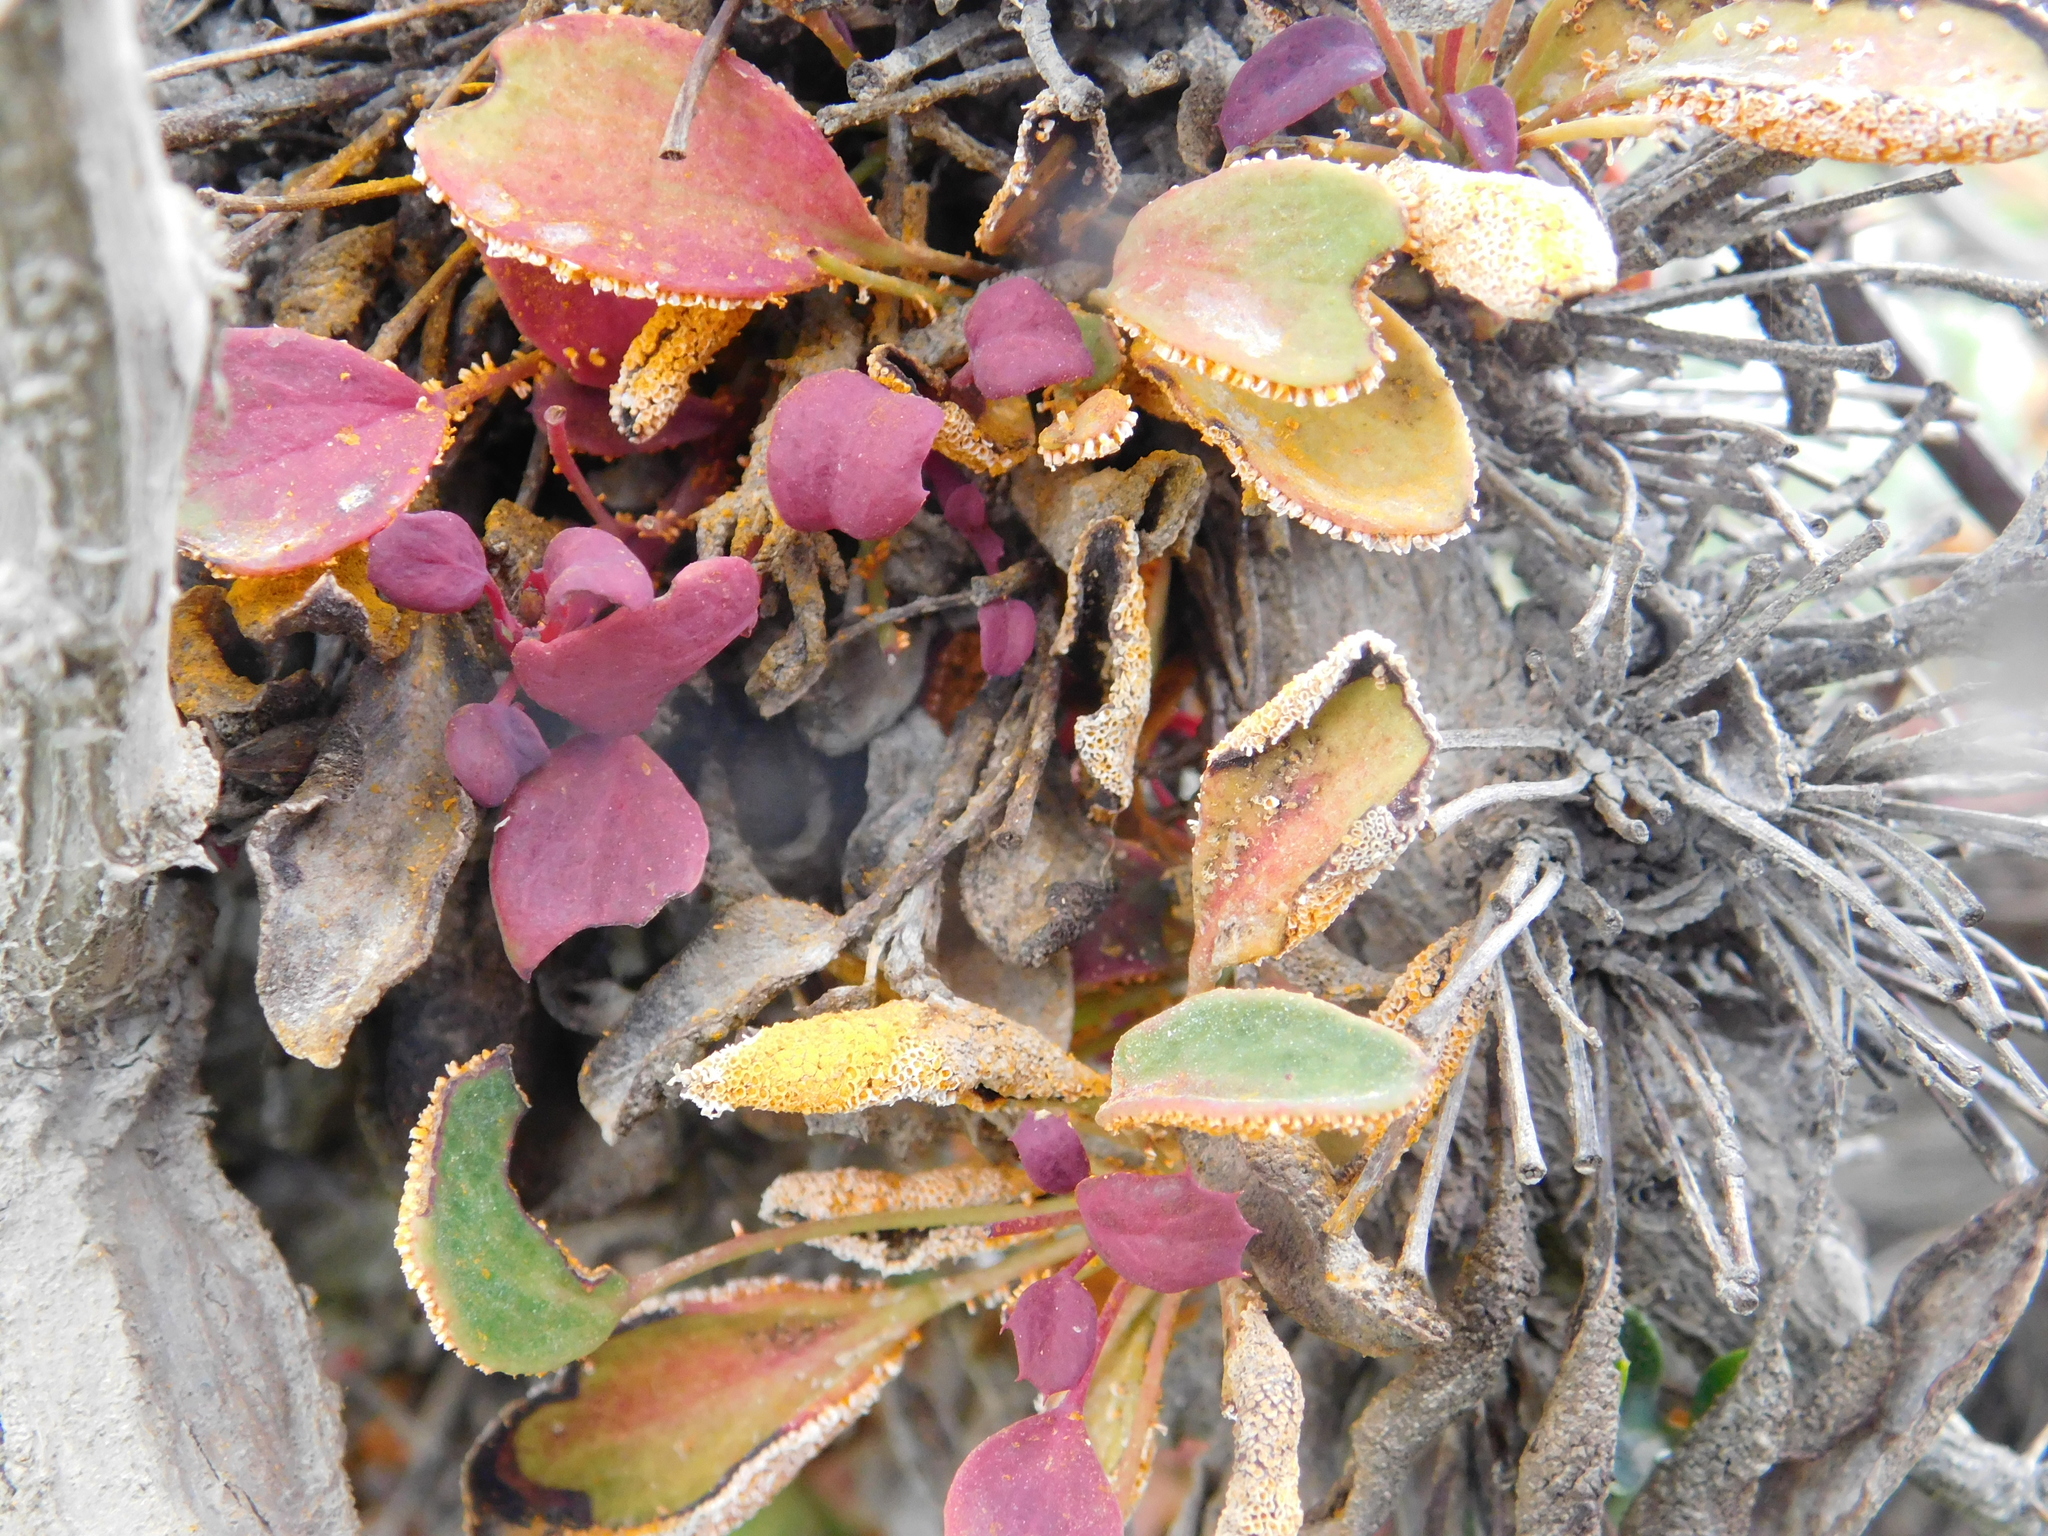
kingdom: Fungi
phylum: Basidiomycota
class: Pucciniomycetes
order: Pucciniales
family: Pucciniaceae
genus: Puccinia
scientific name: Puccinia magellanica
